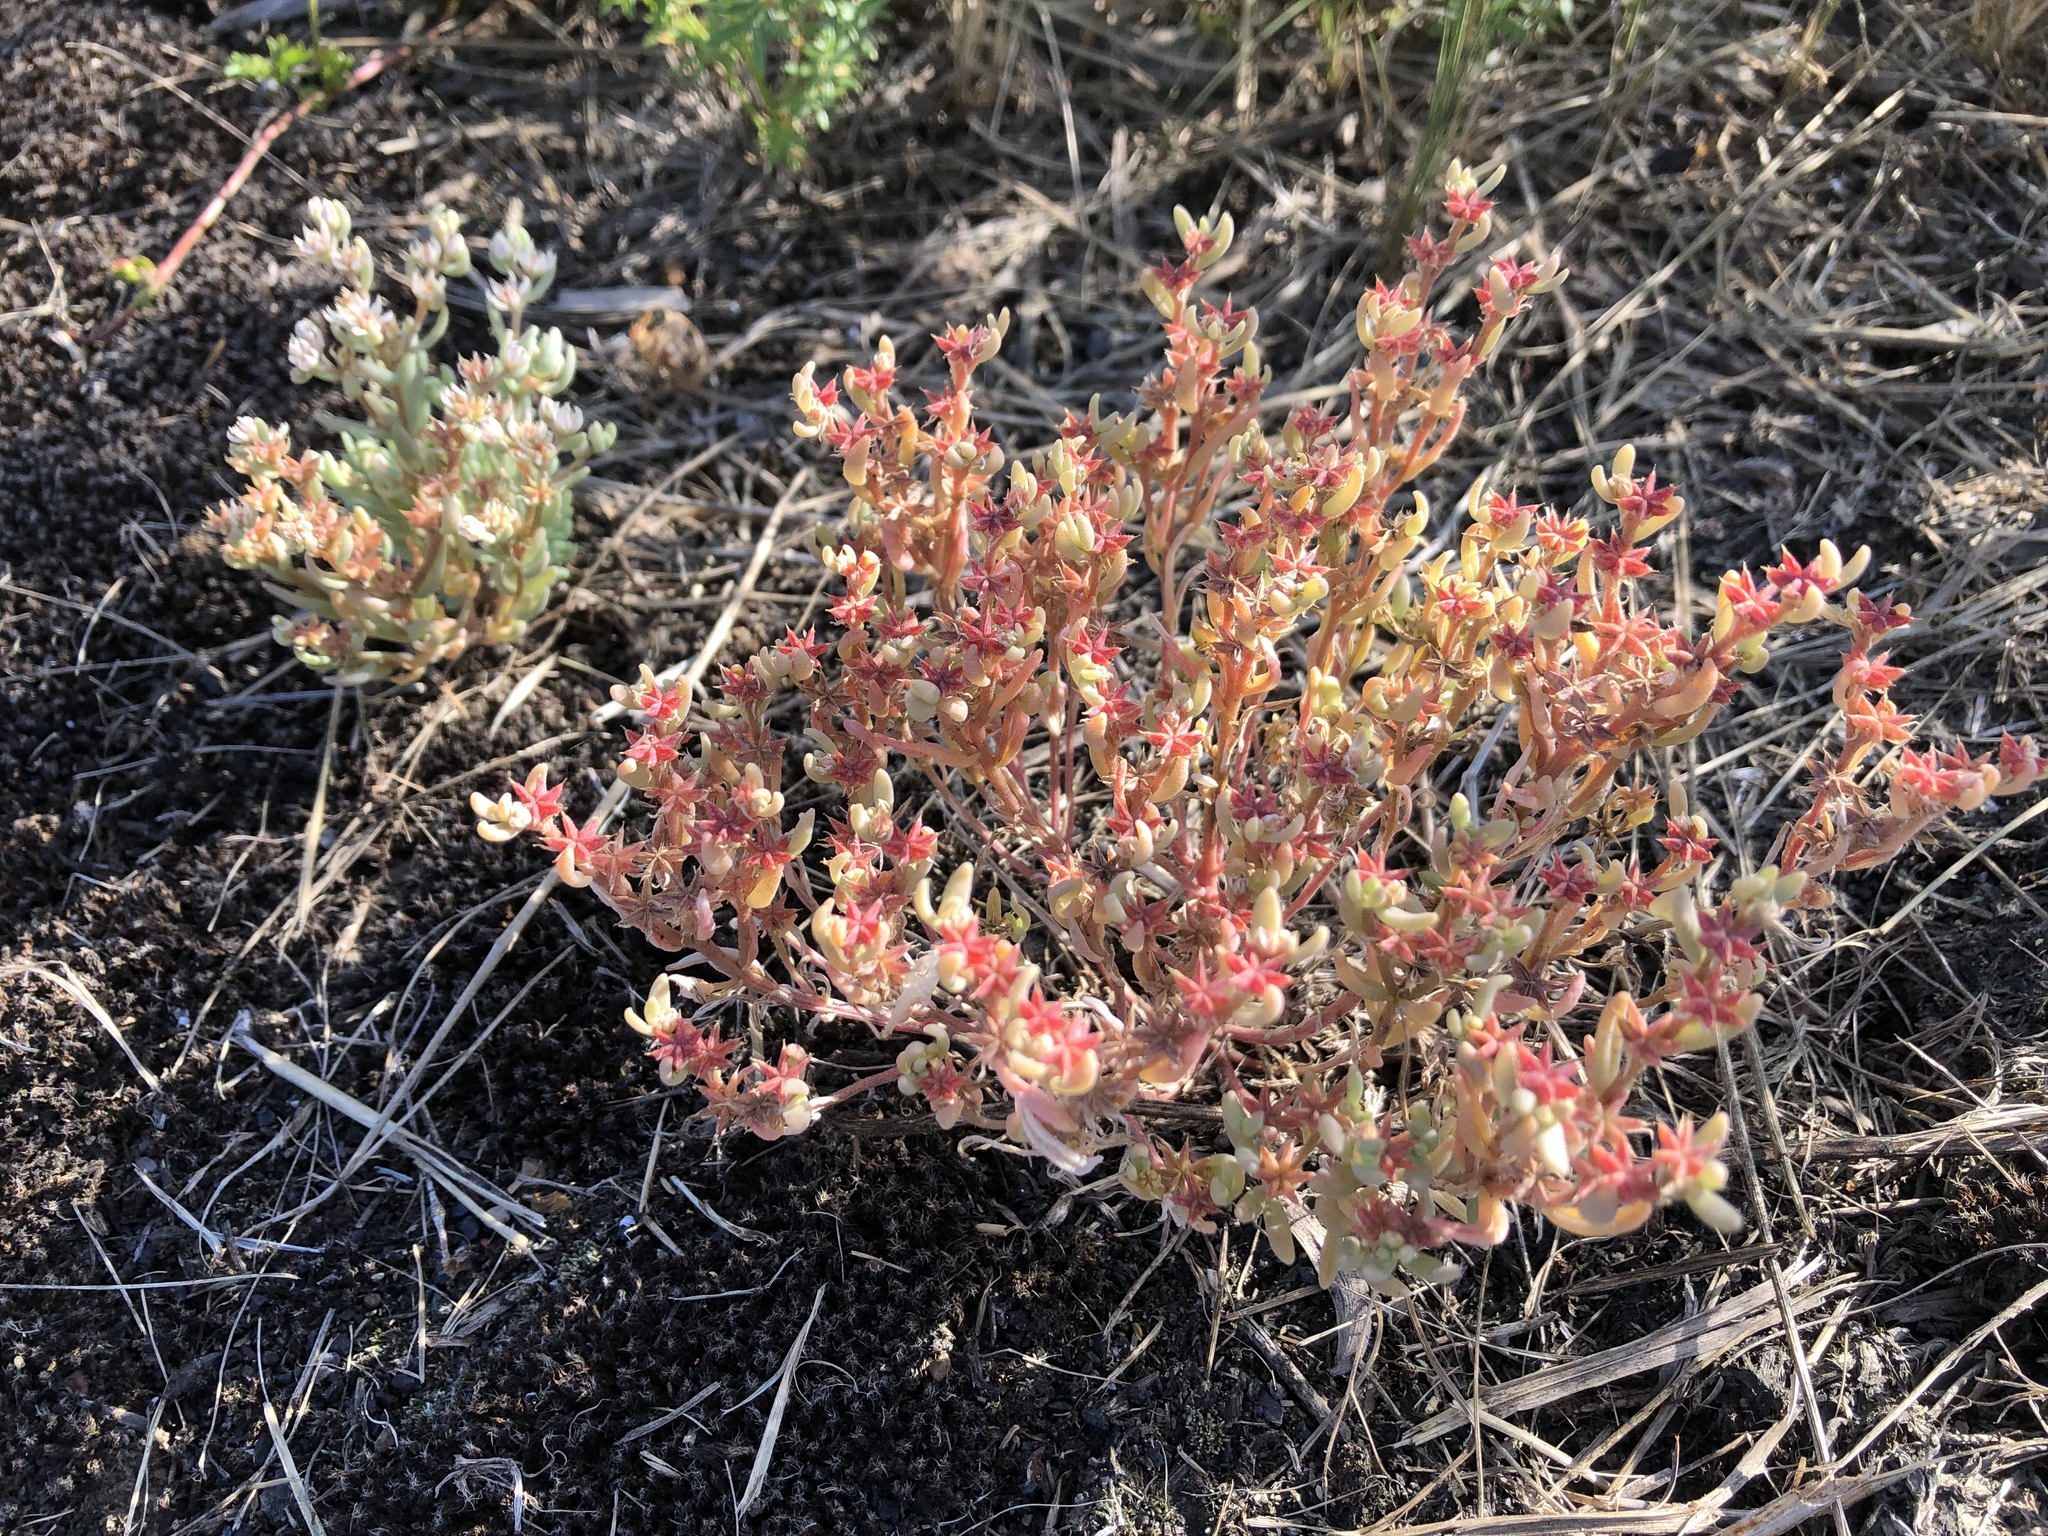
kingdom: Plantae
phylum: Tracheophyta
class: Magnoliopsida
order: Saxifragales
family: Crassulaceae
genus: Sedum
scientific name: Sedum hispanicum
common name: Spanish stonecrop
